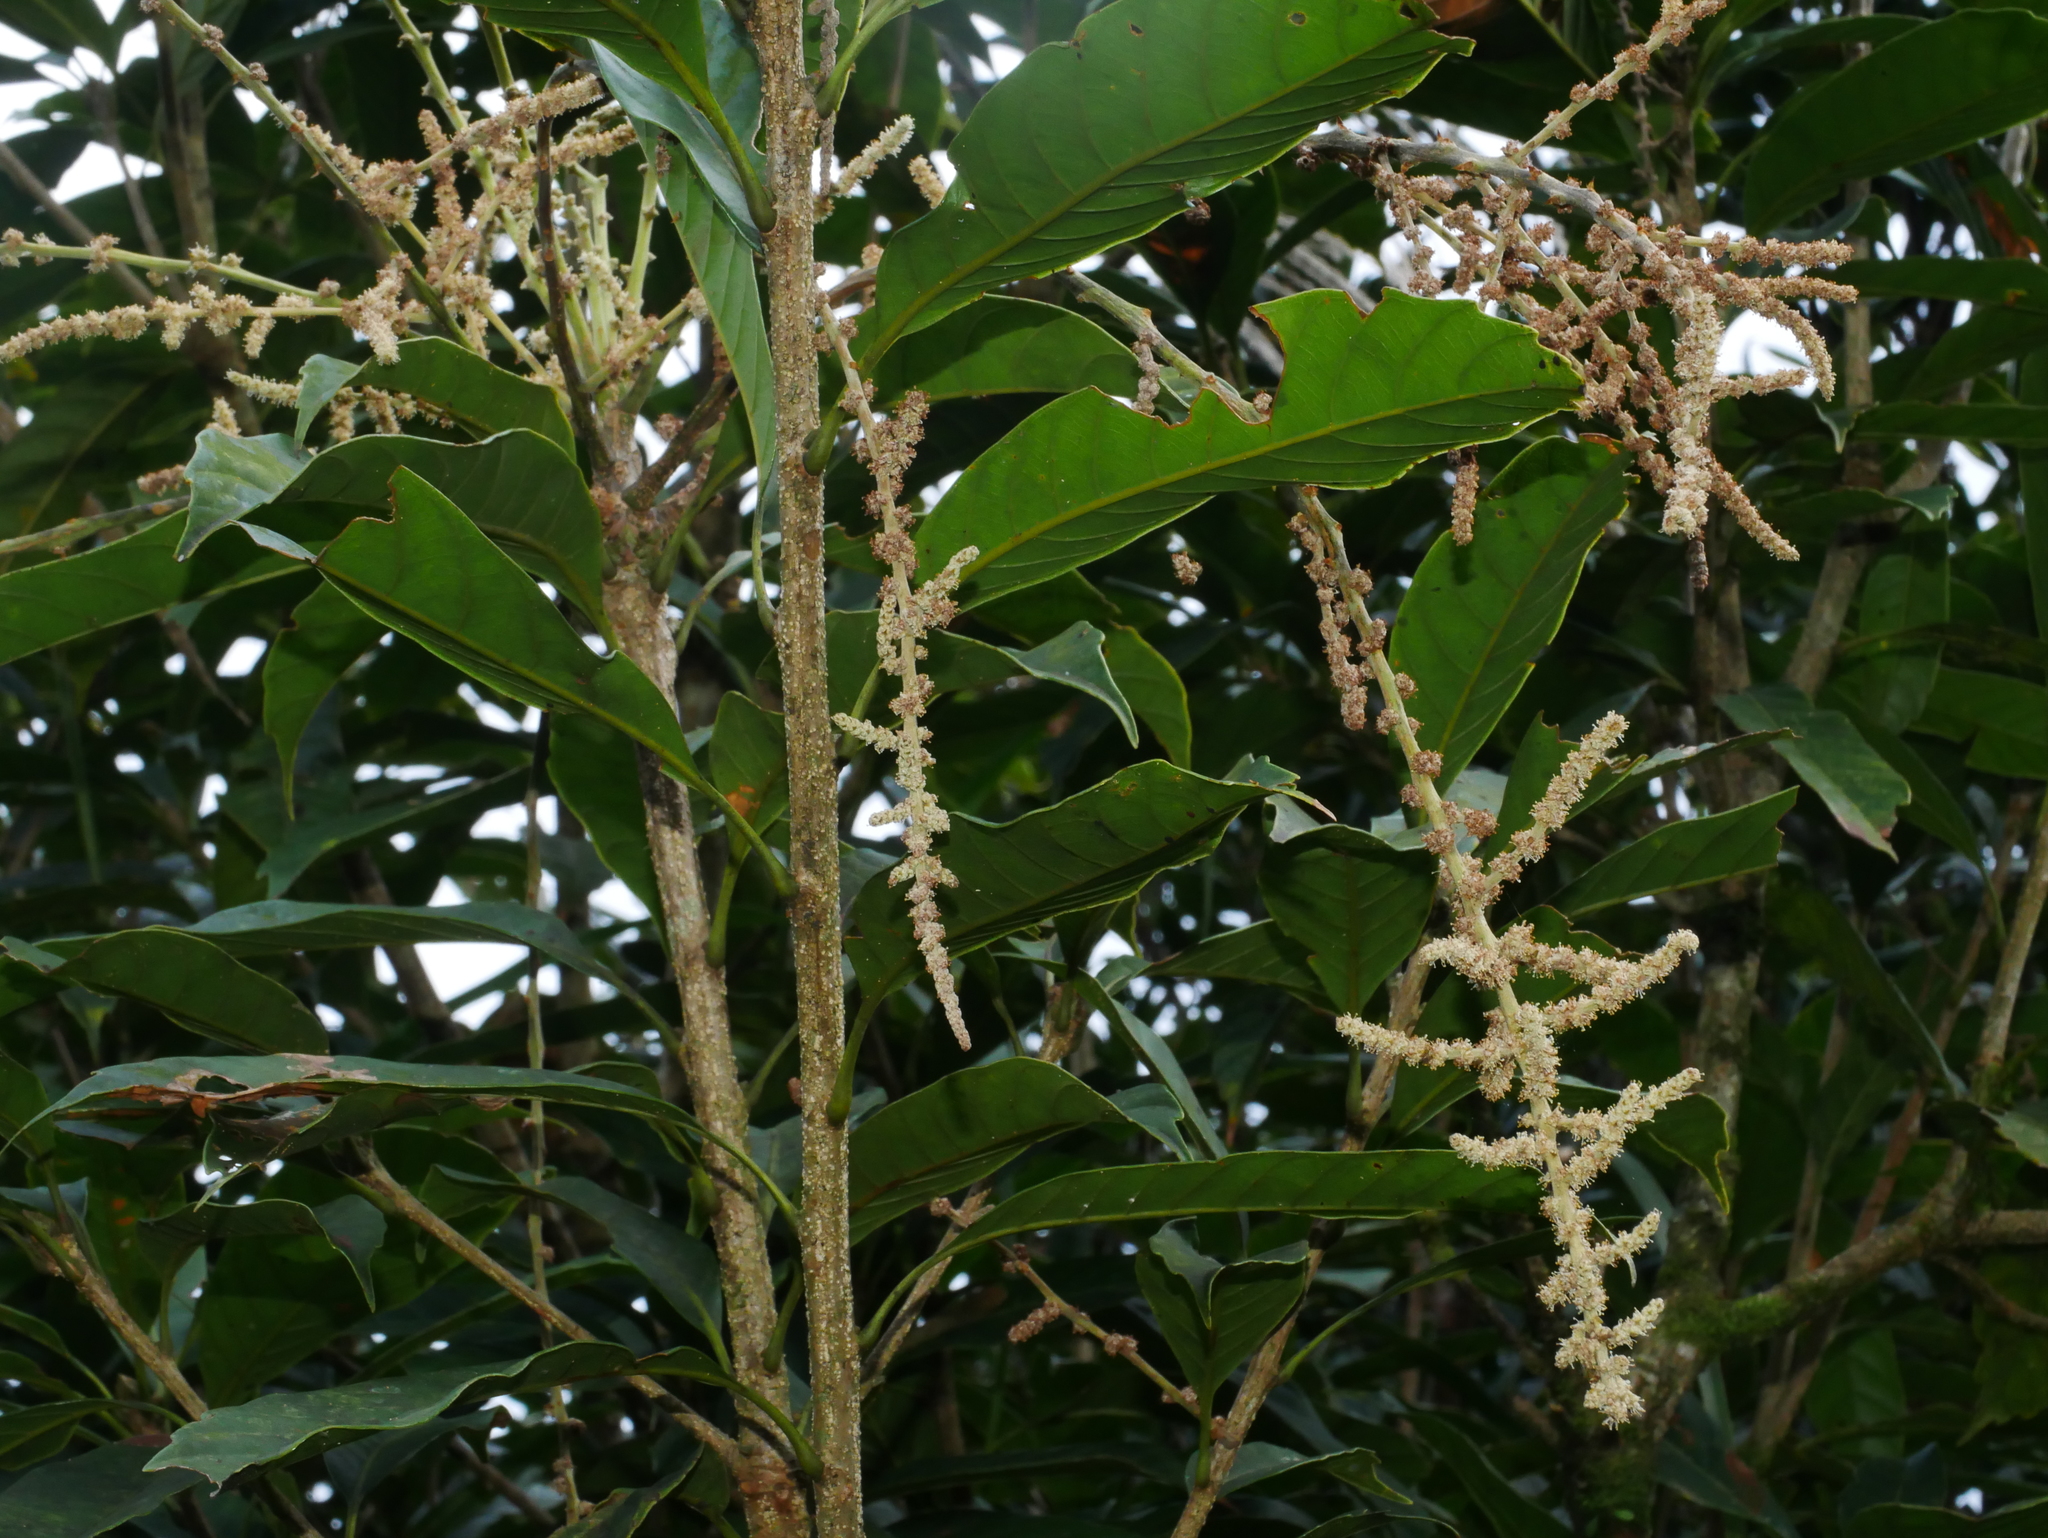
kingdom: Plantae
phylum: Tracheophyta
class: Magnoliopsida
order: Fagales
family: Fagaceae
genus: Lithocarpus
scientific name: Lithocarpus kawakamii
